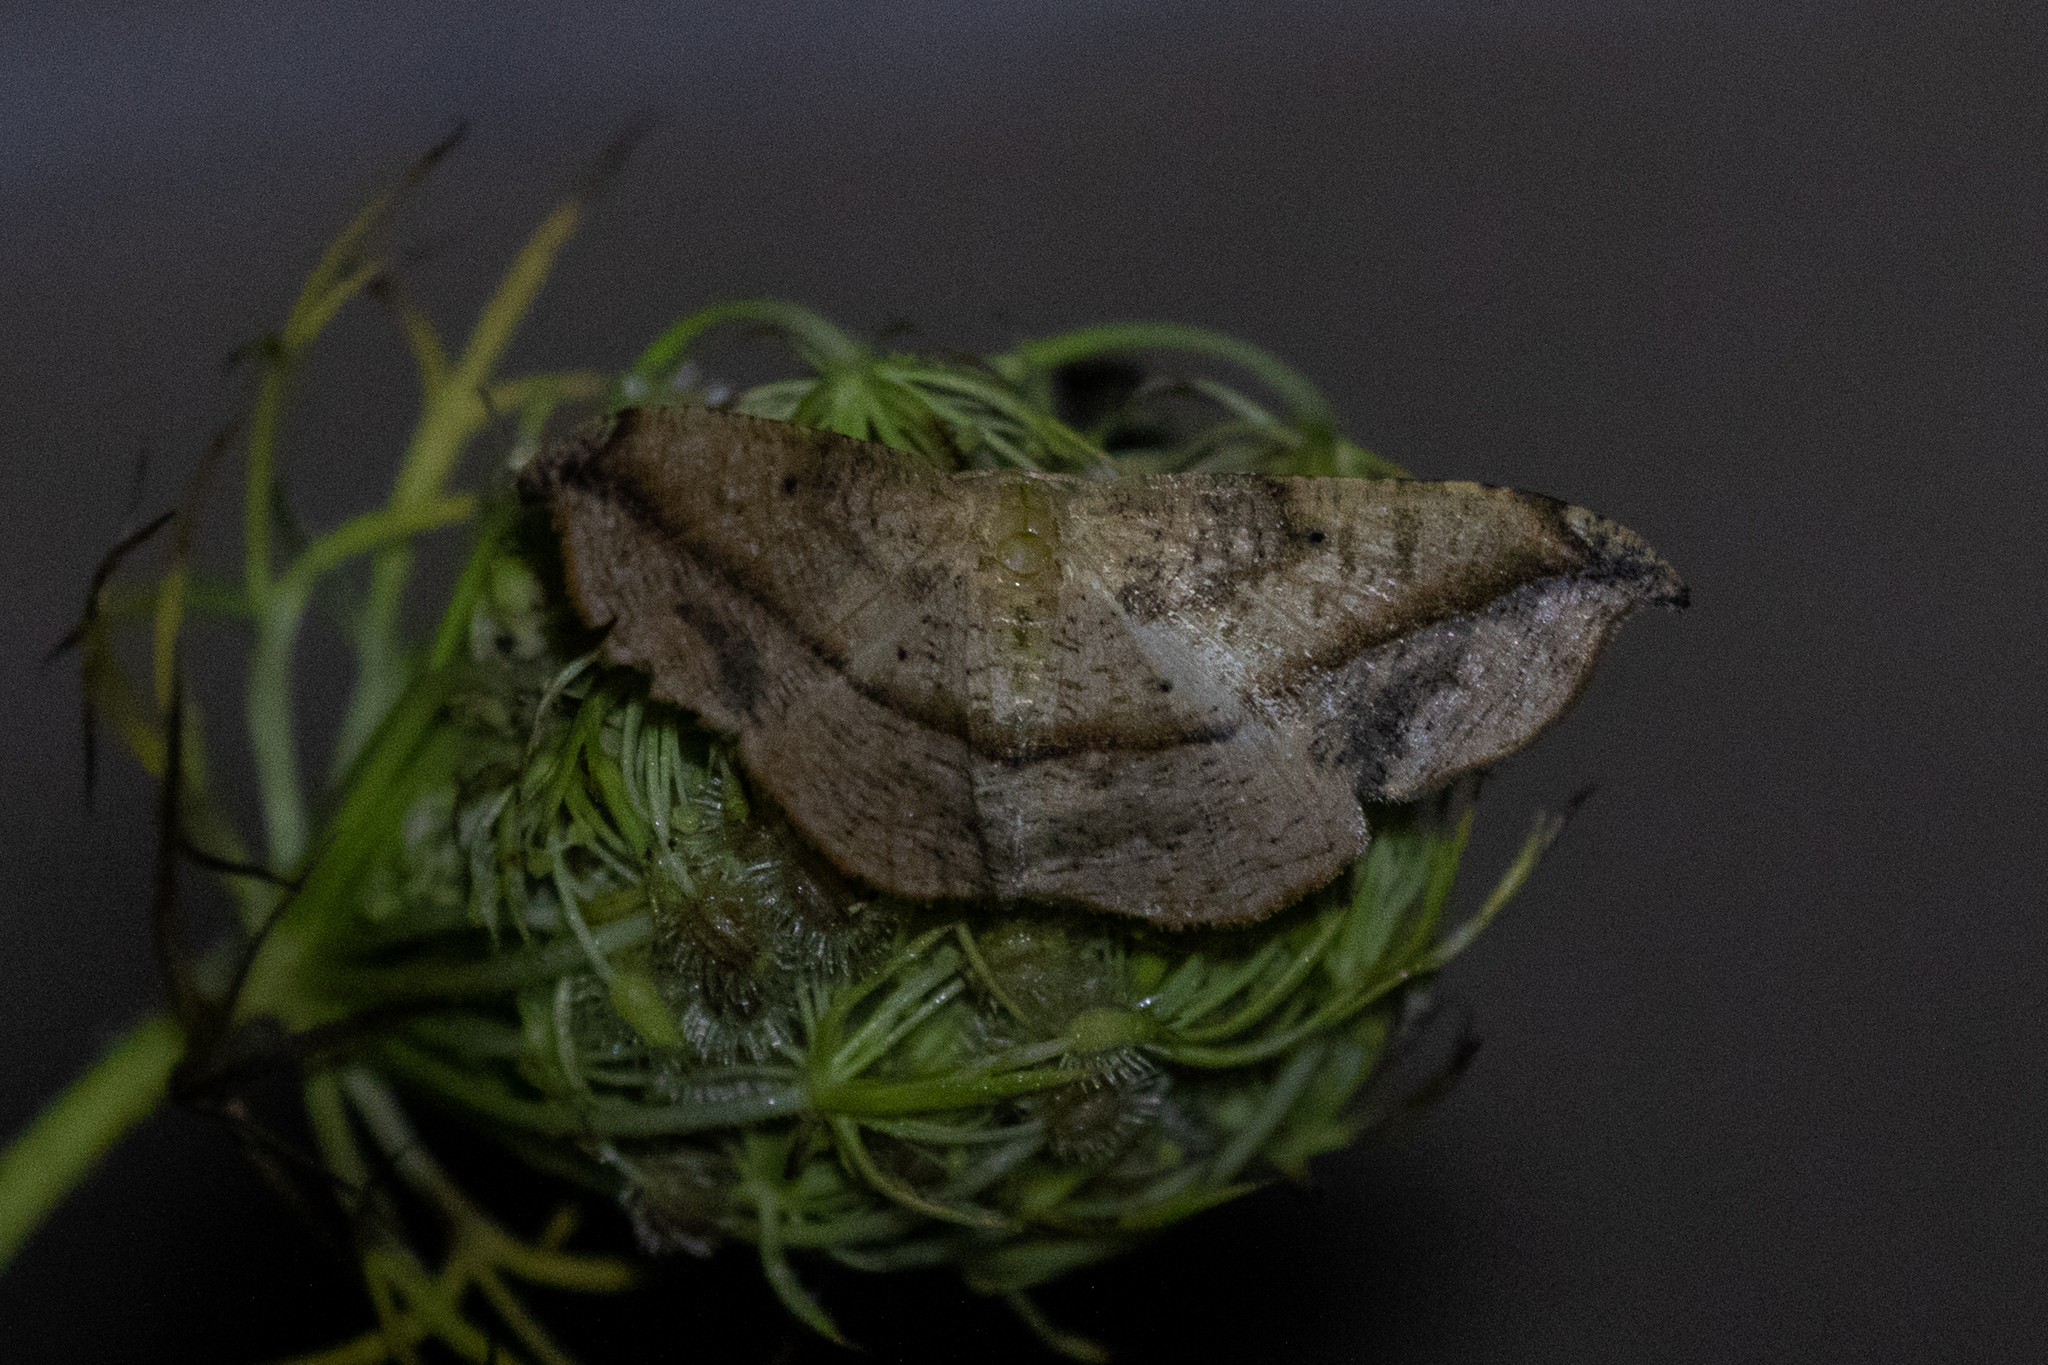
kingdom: Animalia
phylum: Arthropoda
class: Insecta
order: Lepidoptera
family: Geometridae
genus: Patalene
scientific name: Patalene olyzonaria
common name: Juniper geometer moth
